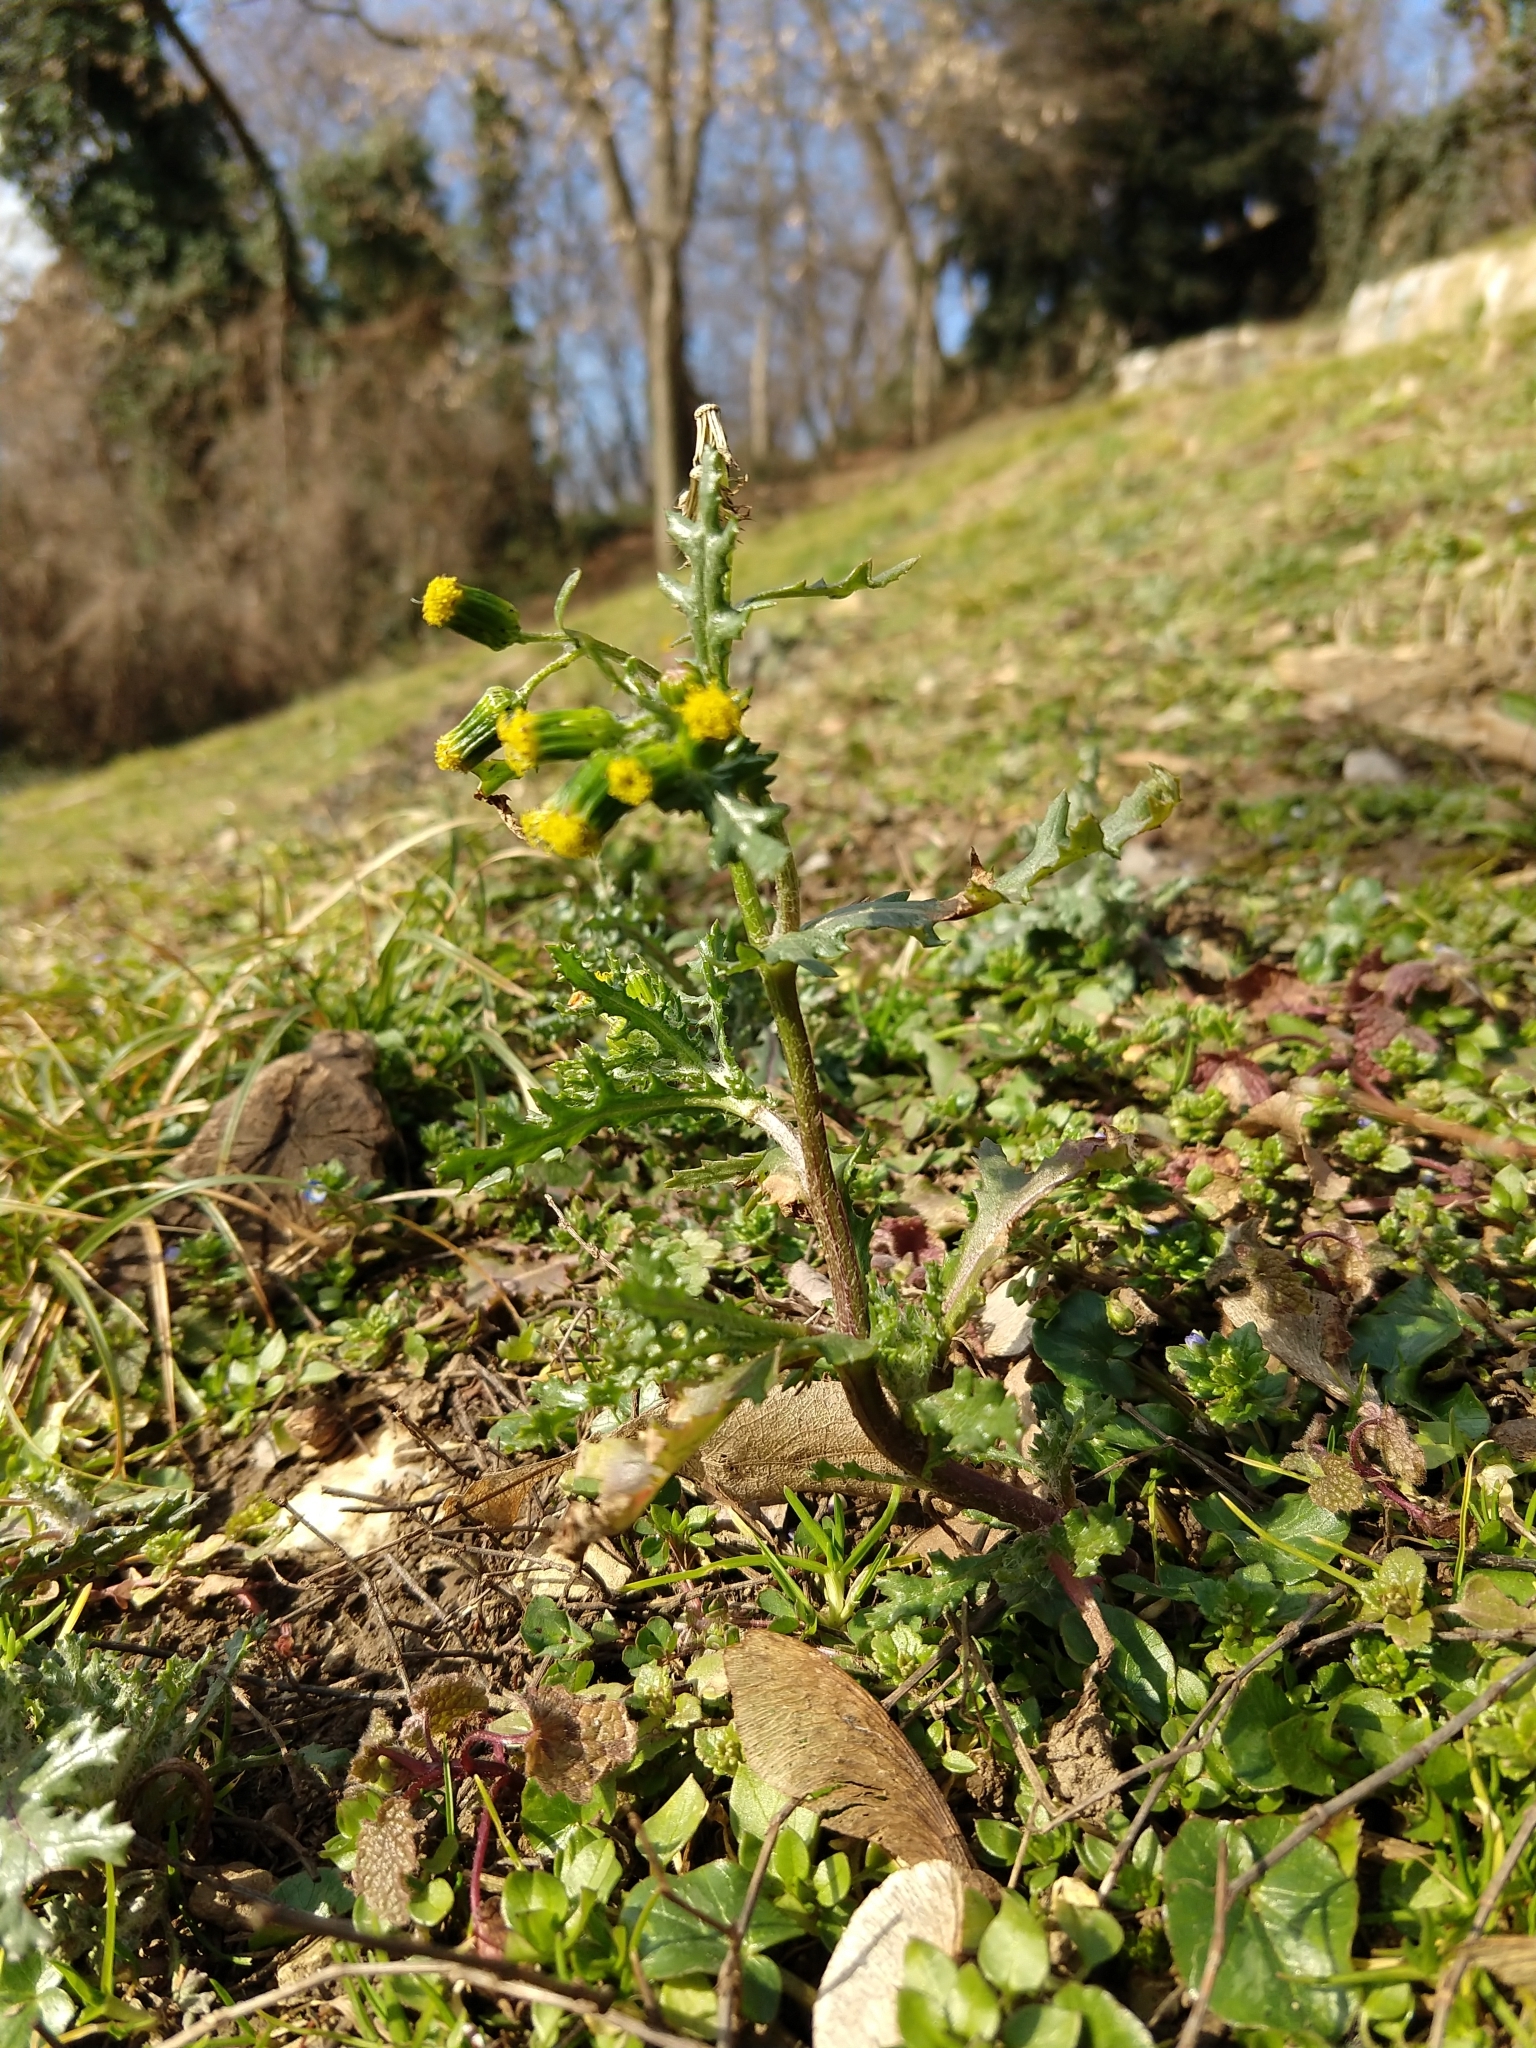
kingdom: Plantae
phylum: Tracheophyta
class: Magnoliopsida
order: Asterales
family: Asteraceae
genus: Senecio
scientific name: Senecio vulgaris
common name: Old-man-in-the-spring
